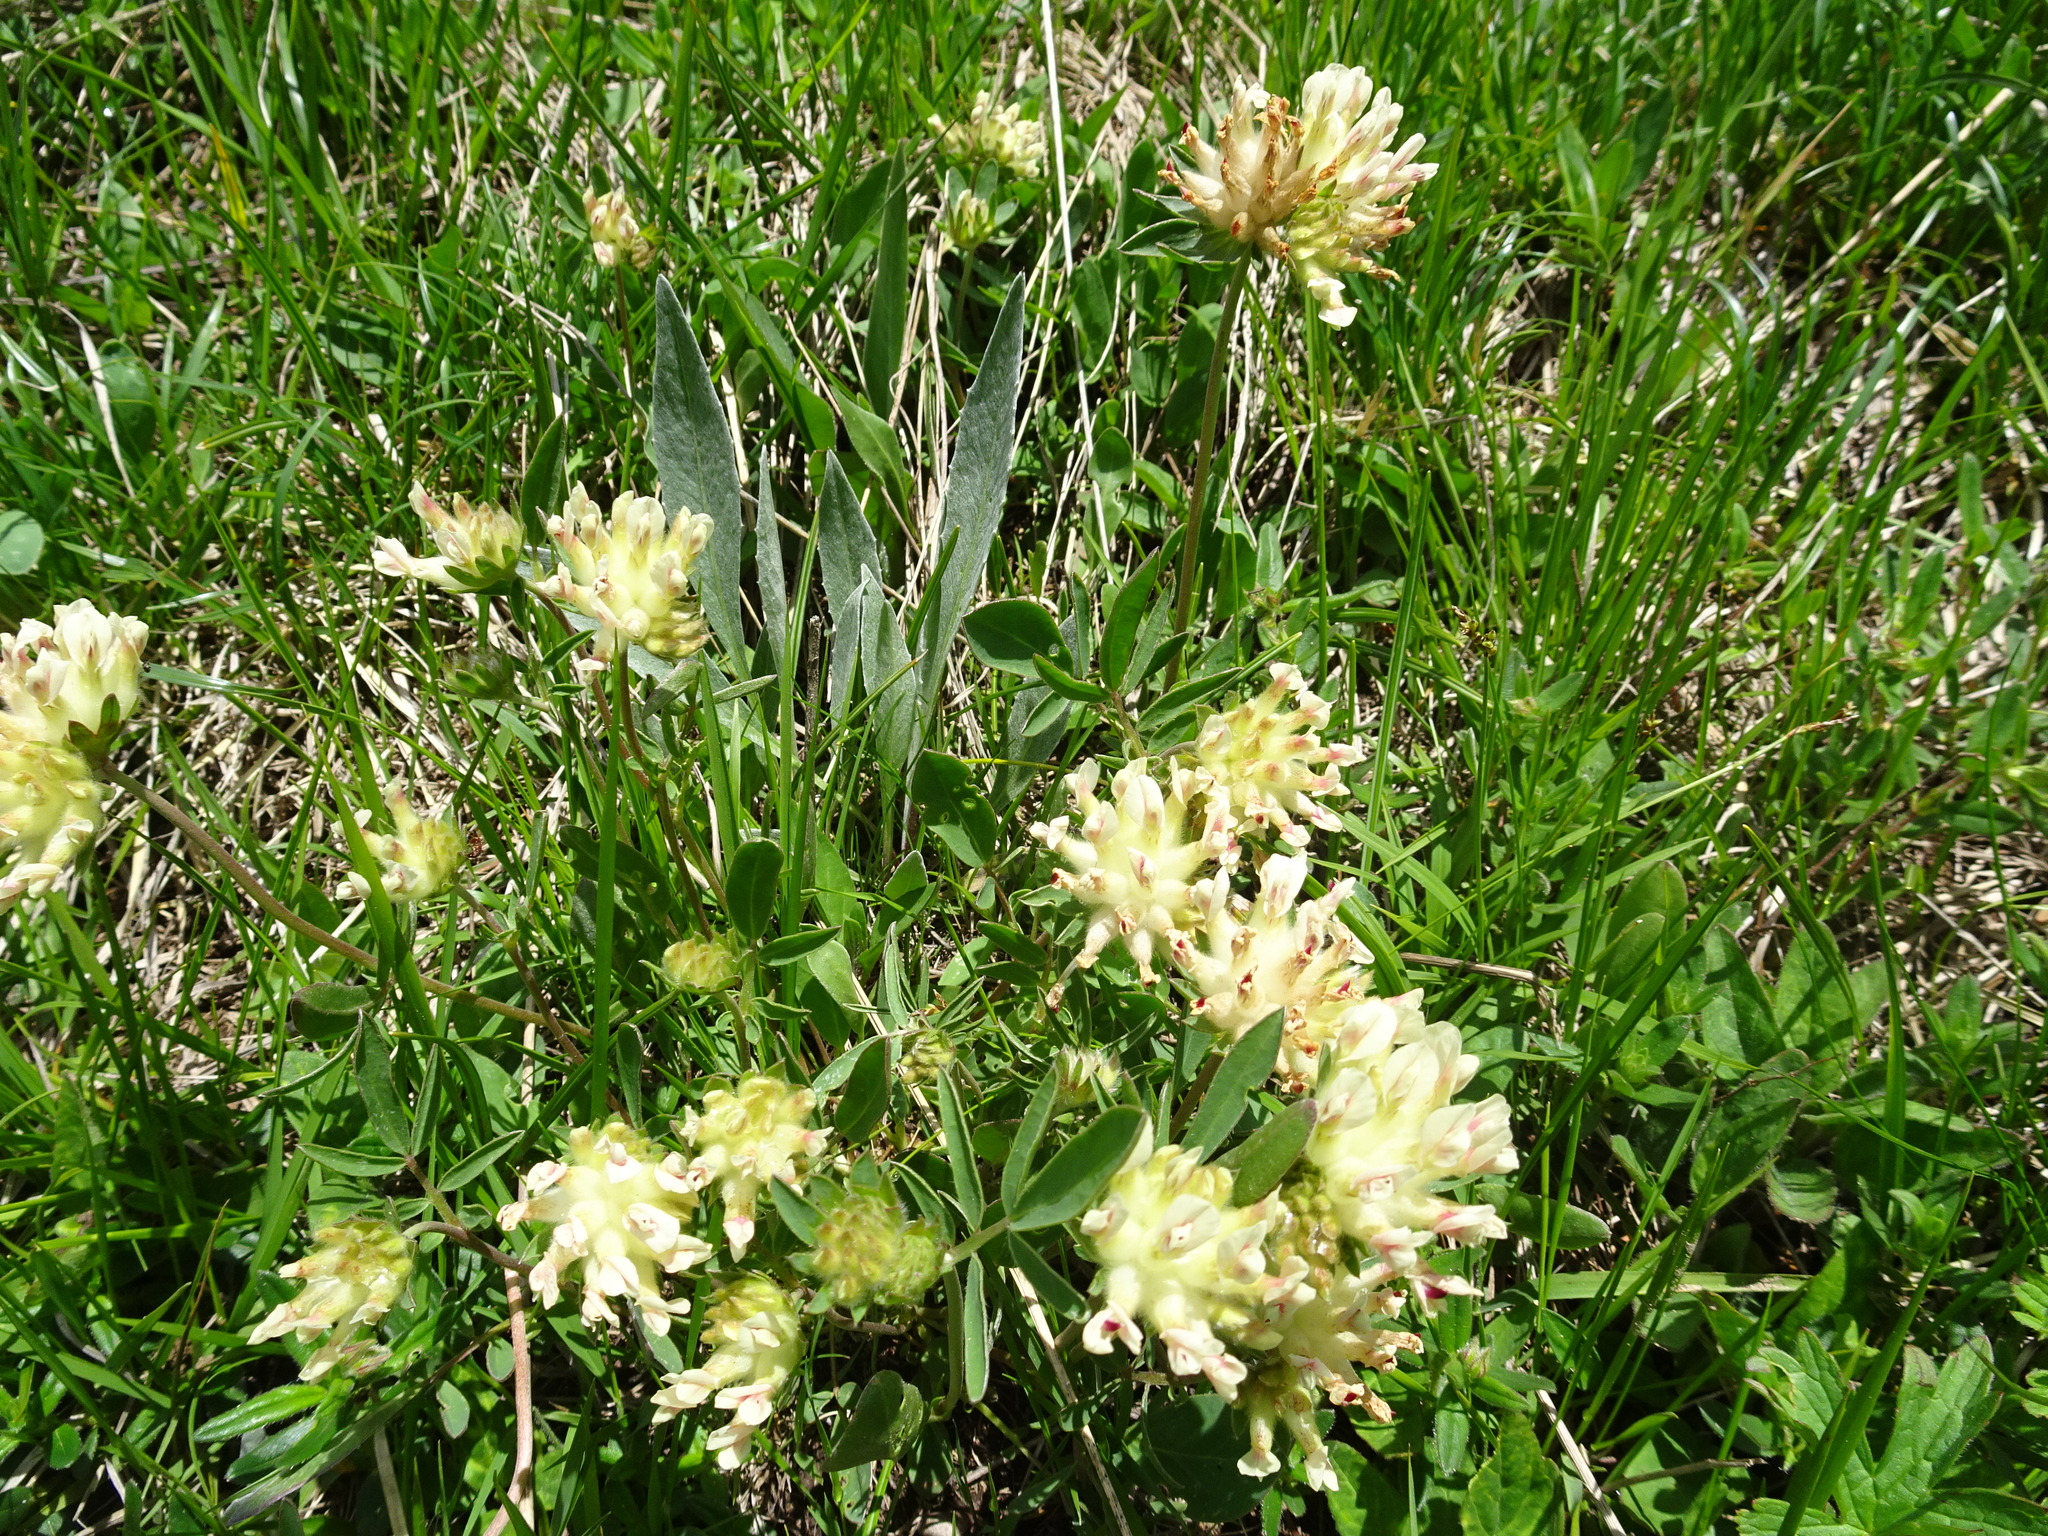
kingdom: Plantae
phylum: Tracheophyta
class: Magnoliopsida
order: Fabales
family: Fabaceae
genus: Anthyllis
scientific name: Anthyllis vulneraria
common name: Kidney vetch
